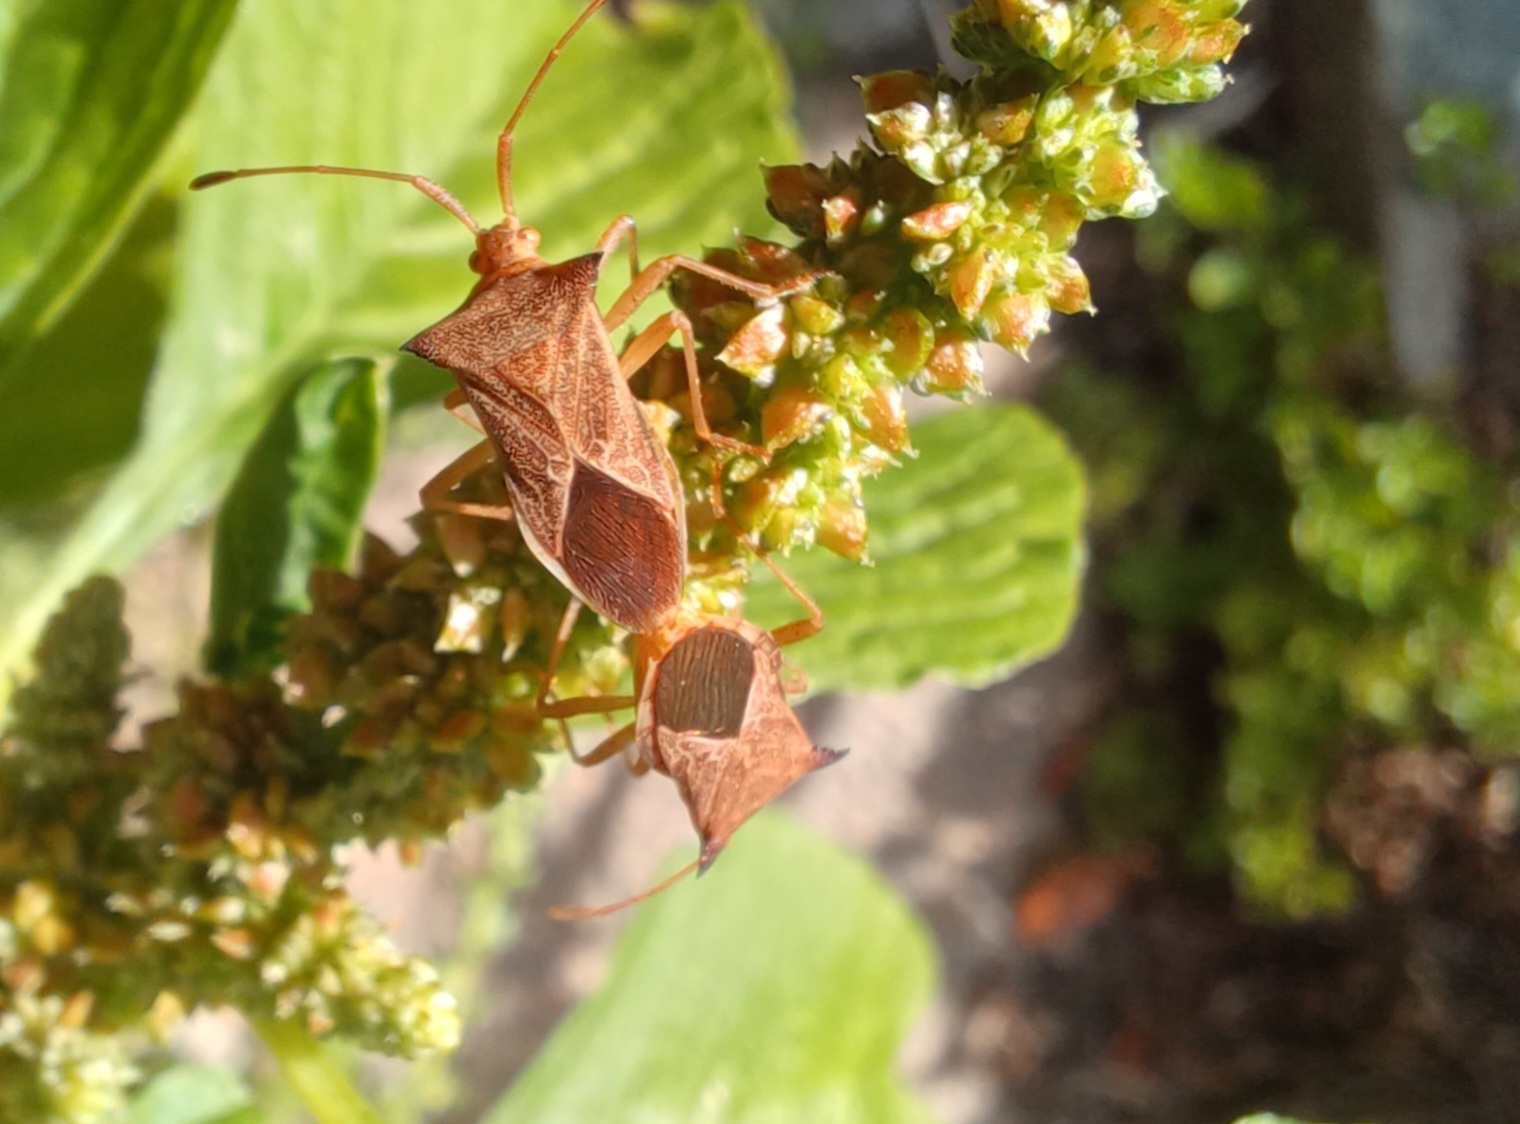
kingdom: Animalia
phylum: Arthropoda
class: Insecta
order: Hemiptera
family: Coreidae
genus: Cletus
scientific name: Cletus ochraceus
